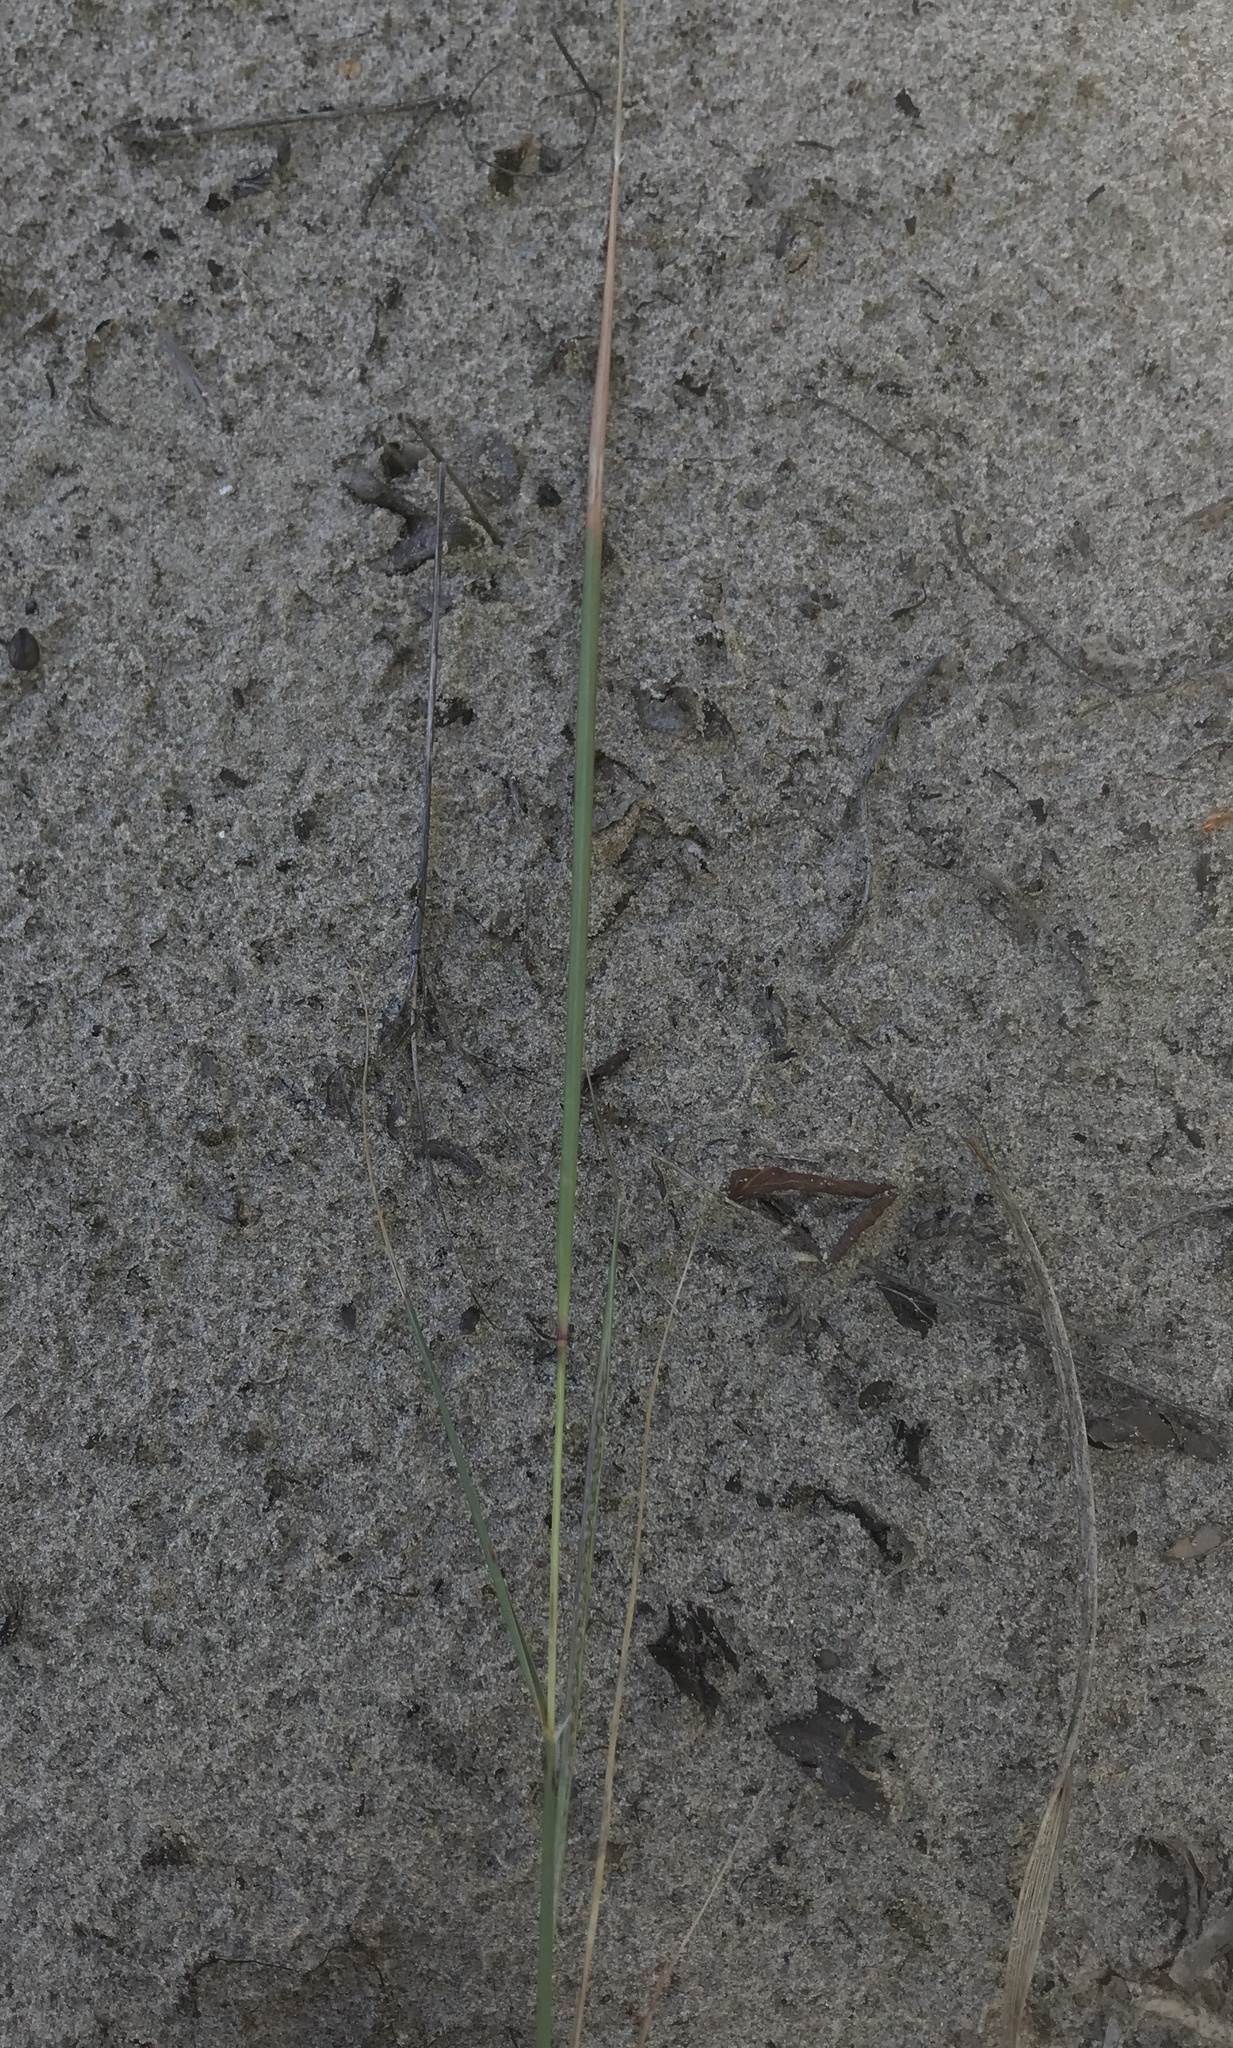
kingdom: Plantae
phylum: Tracheophyta
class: Liliopsida
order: Poales
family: Poaceae
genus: Sporobolus
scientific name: Sporobolus cryptandrus
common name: Sand dropseed
